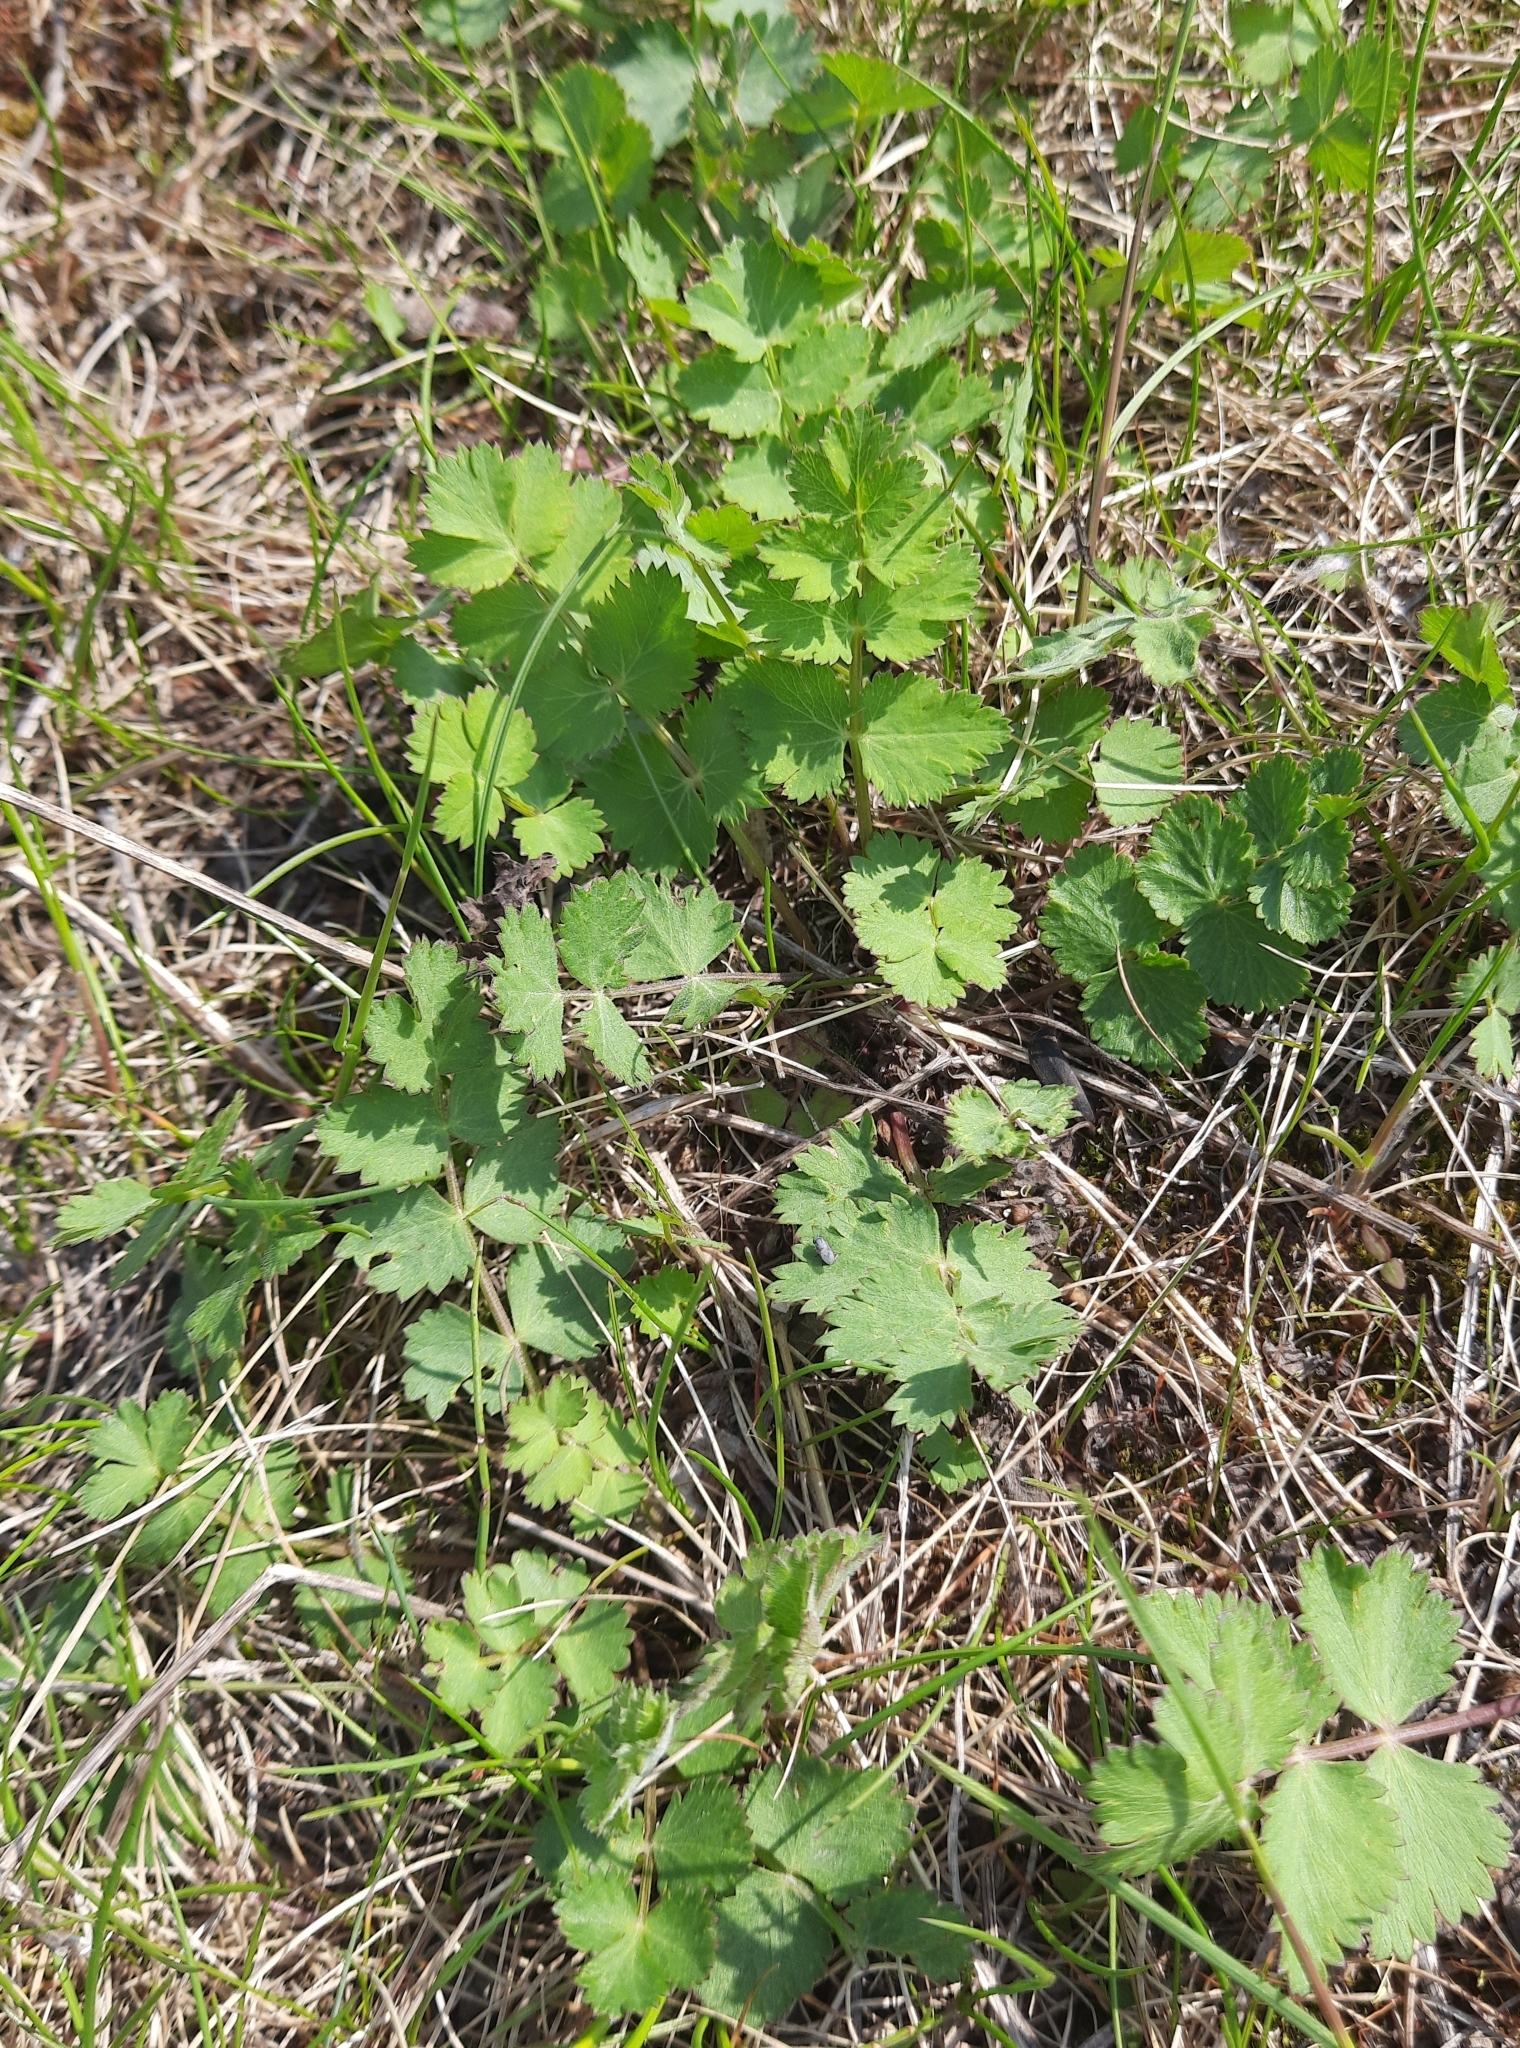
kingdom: Plantae
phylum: Tracheophyta
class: Magnoliopsida
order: Apiales
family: Apiaceae
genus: Pimpinella
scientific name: Pimpinella saxifraga
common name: Burnet-saxifrage
